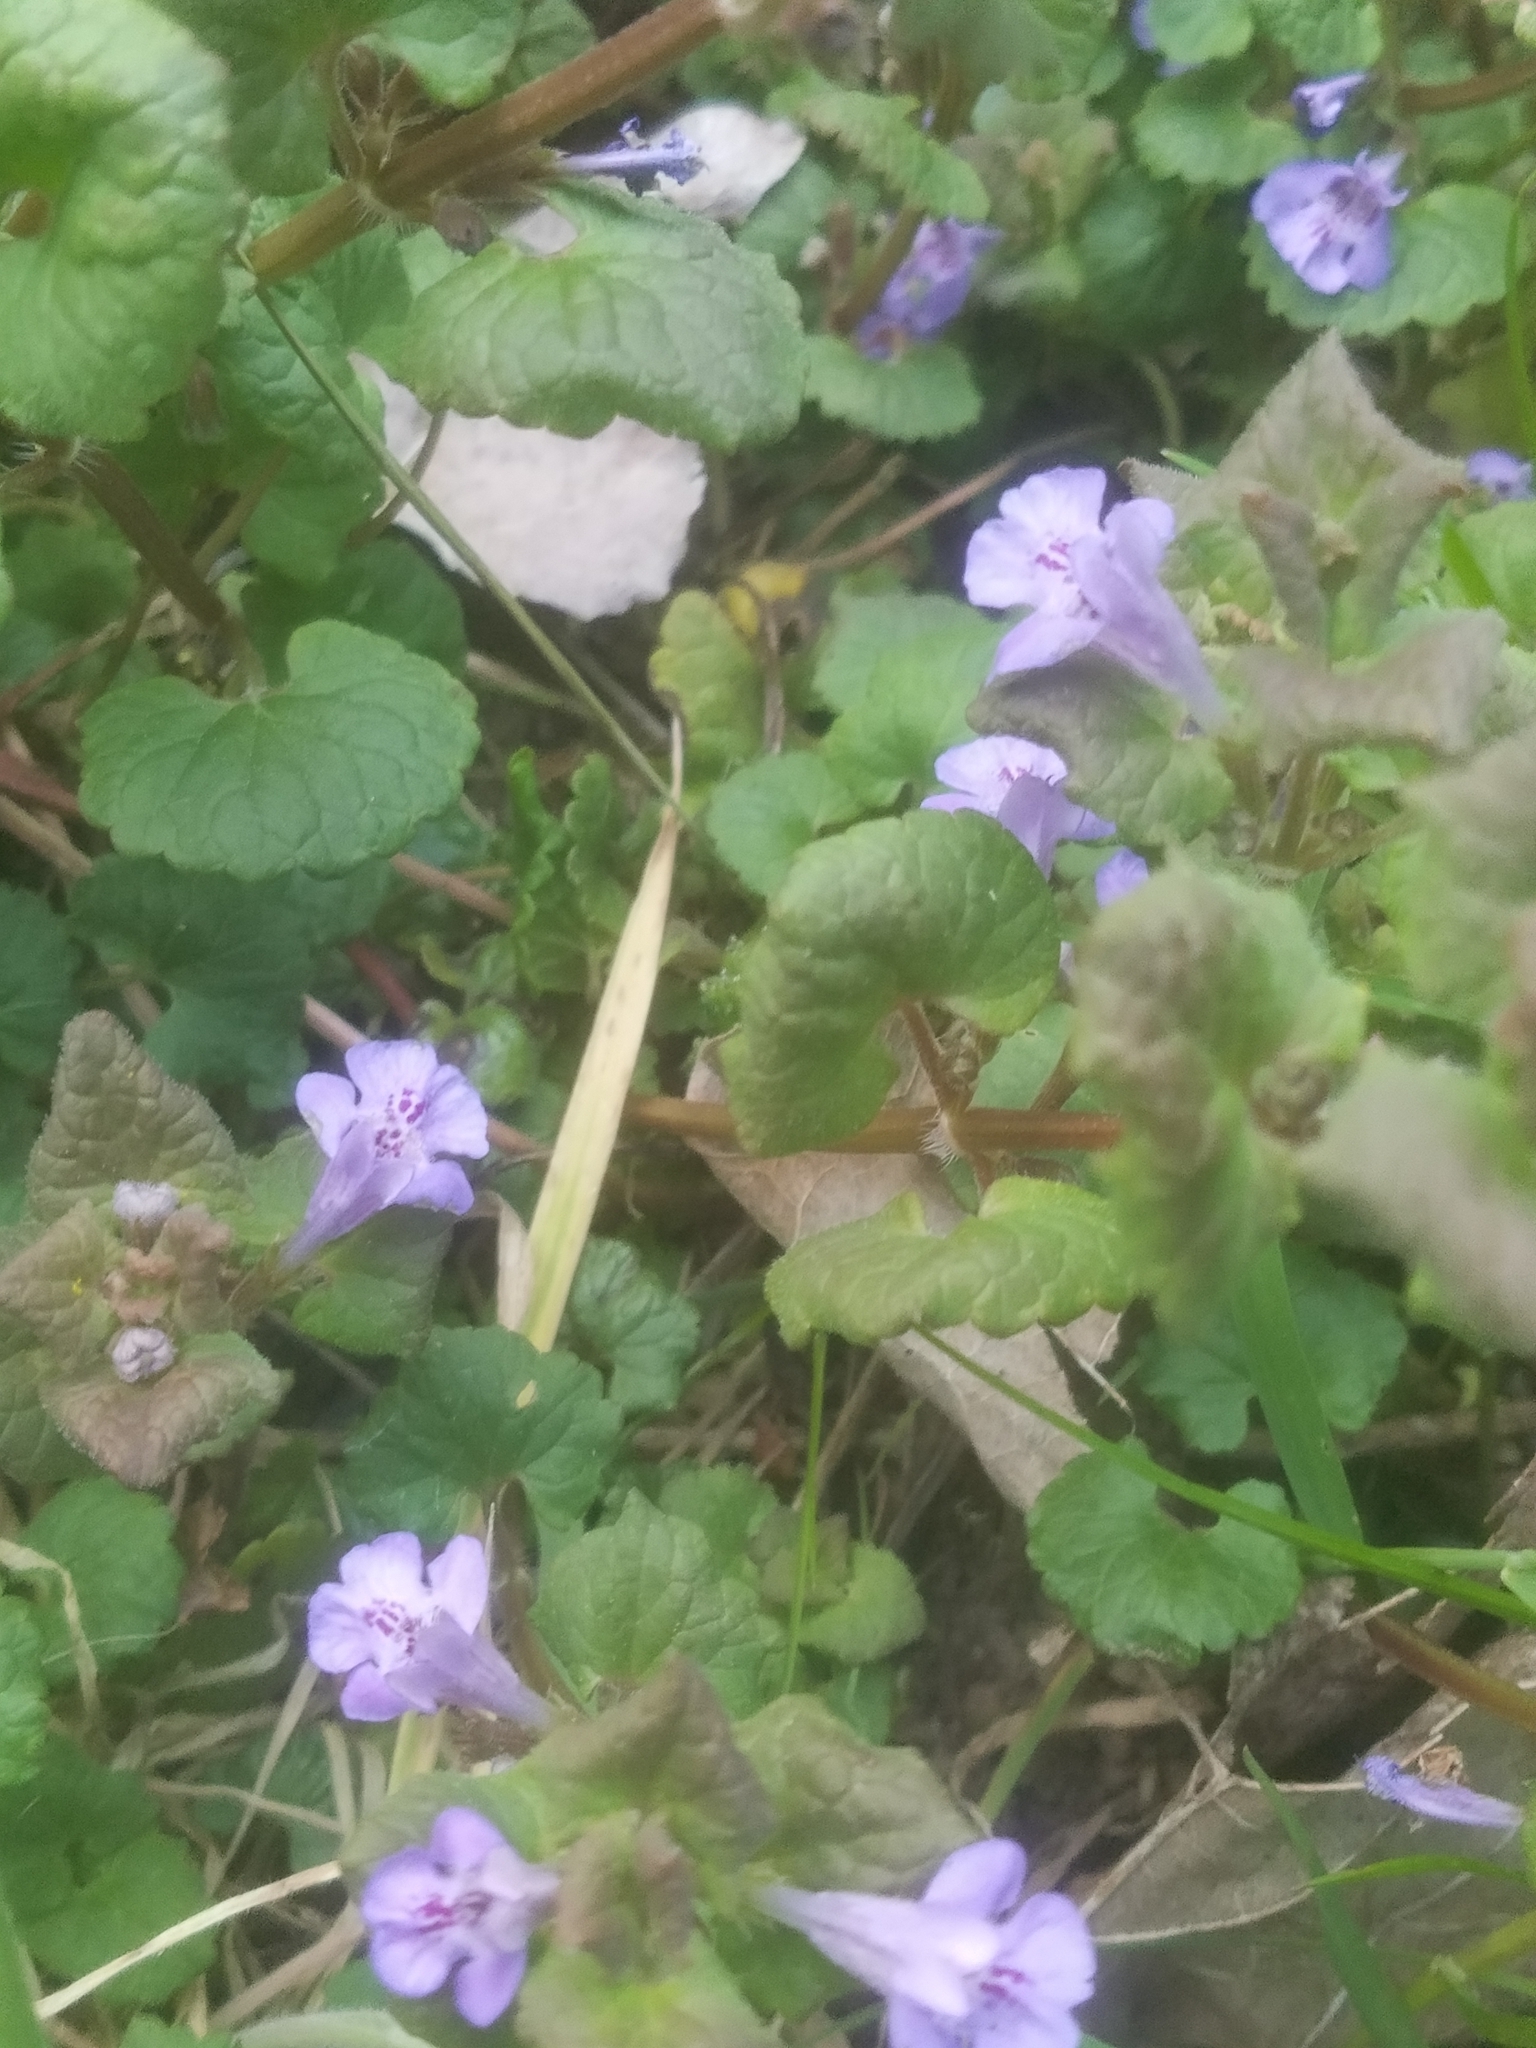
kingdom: Plantae
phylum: Tracheophyta
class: Magnoliopsida
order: Lamiales
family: Lamiaceae
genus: Glechoma
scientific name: Glechoma hederacea
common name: Ground ivy
